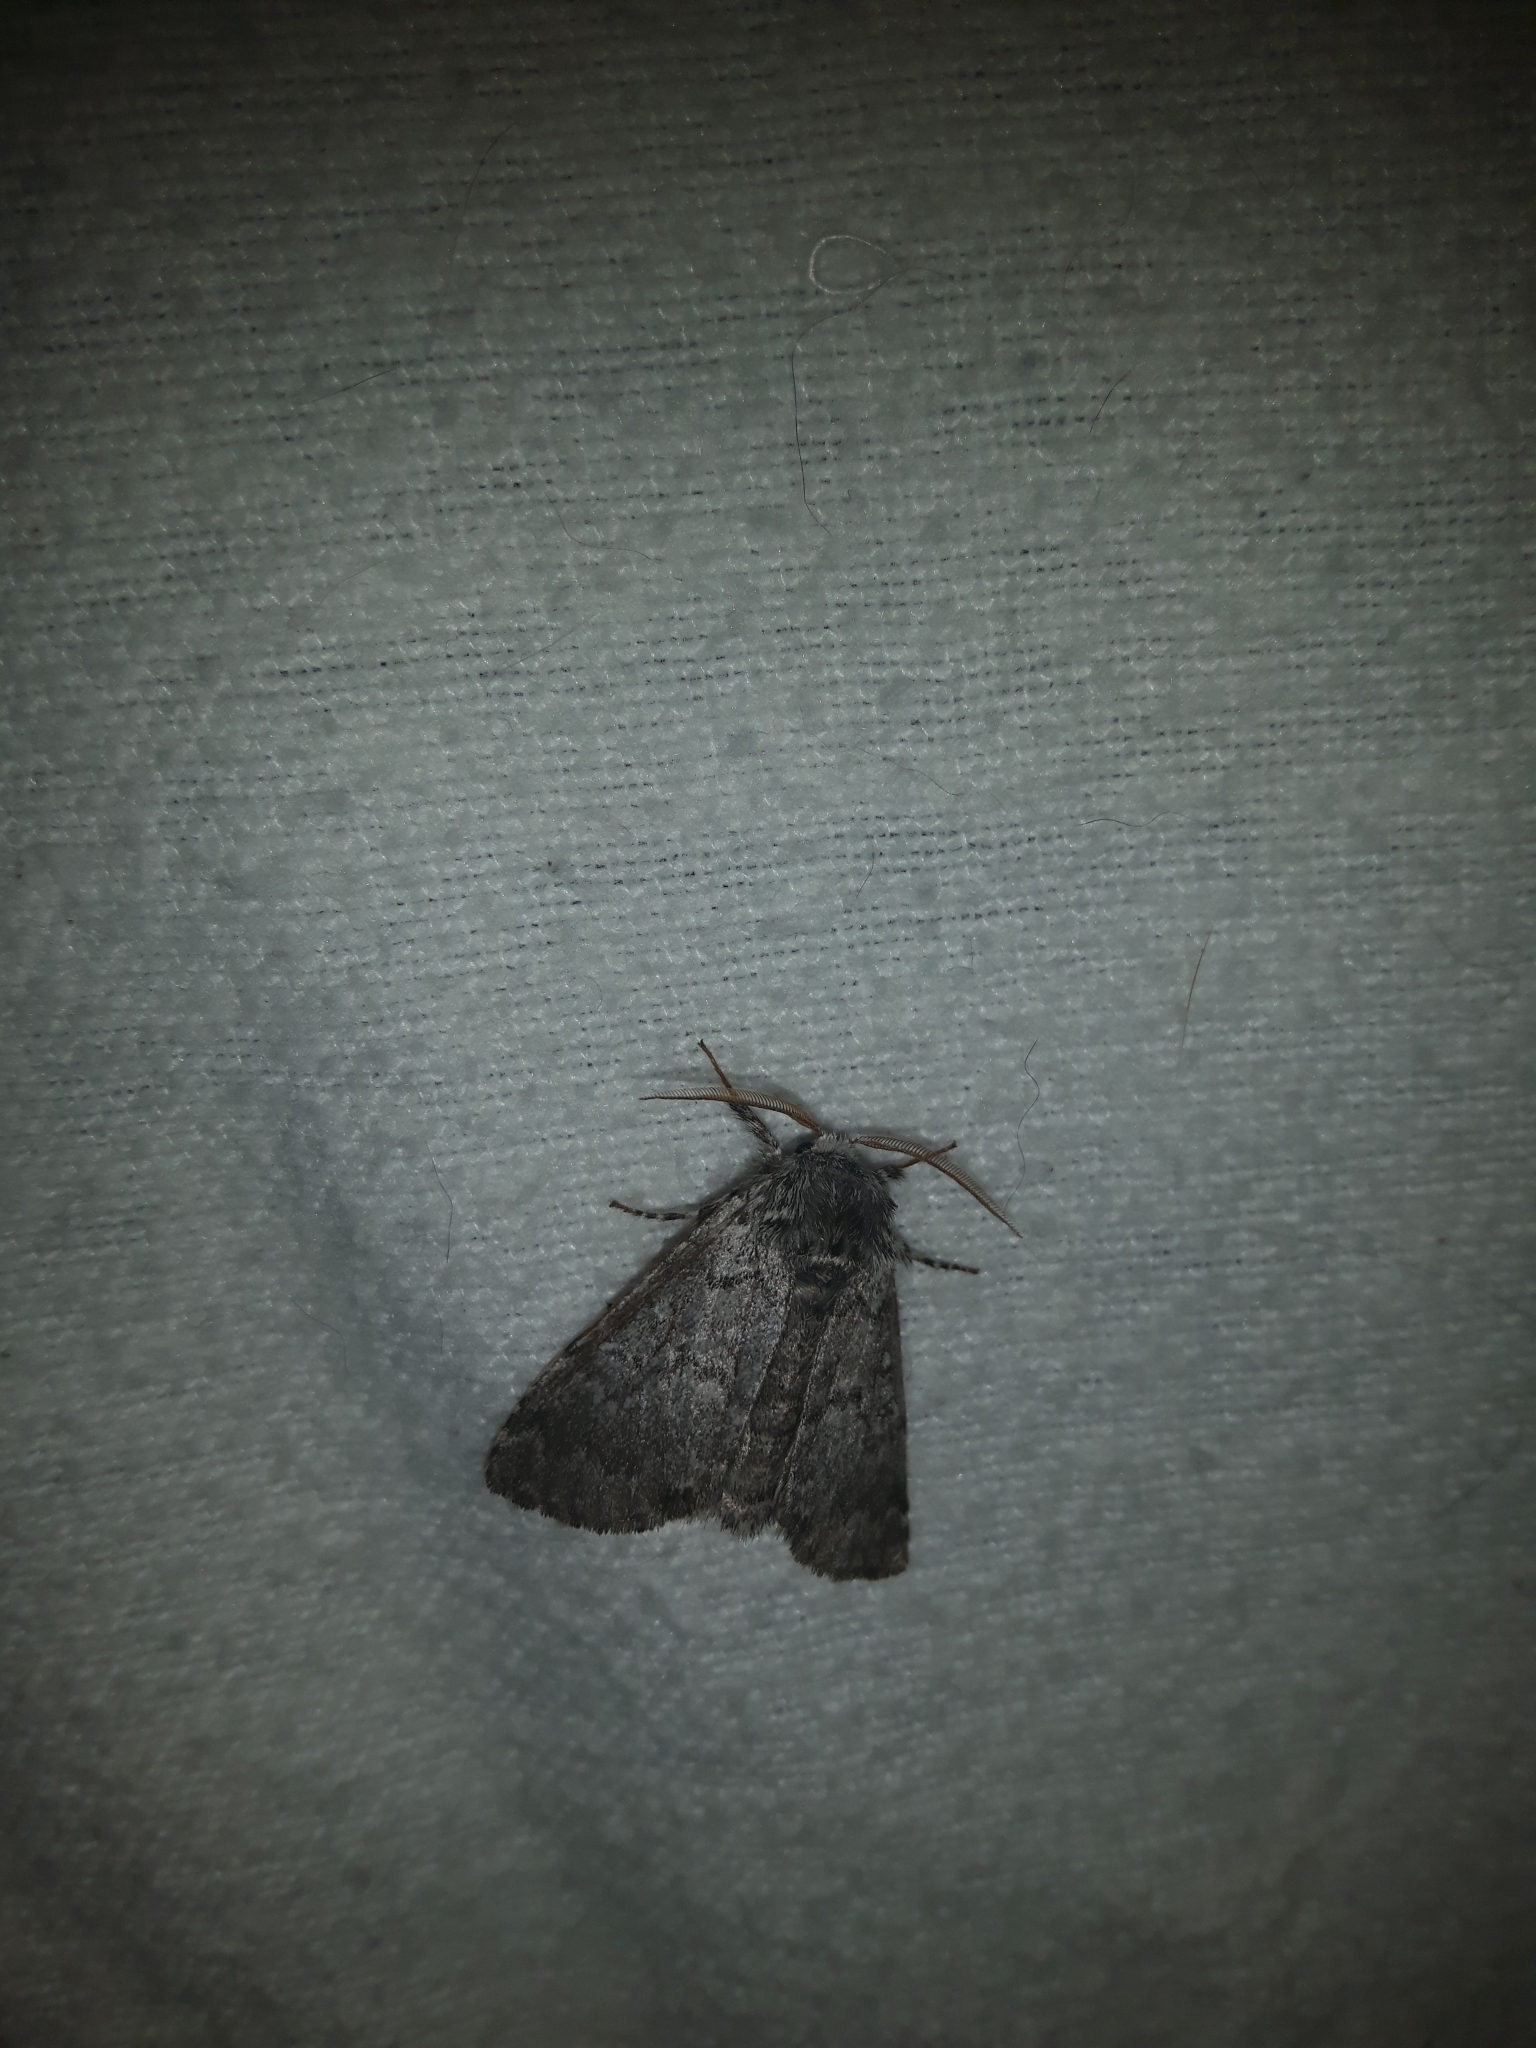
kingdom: Animalia
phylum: Arthropoda
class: Insecta
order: Lepidoptera
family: Noctuidae
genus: Colocasia
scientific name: Colocasia propinquilinea
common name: Close-banded demas
